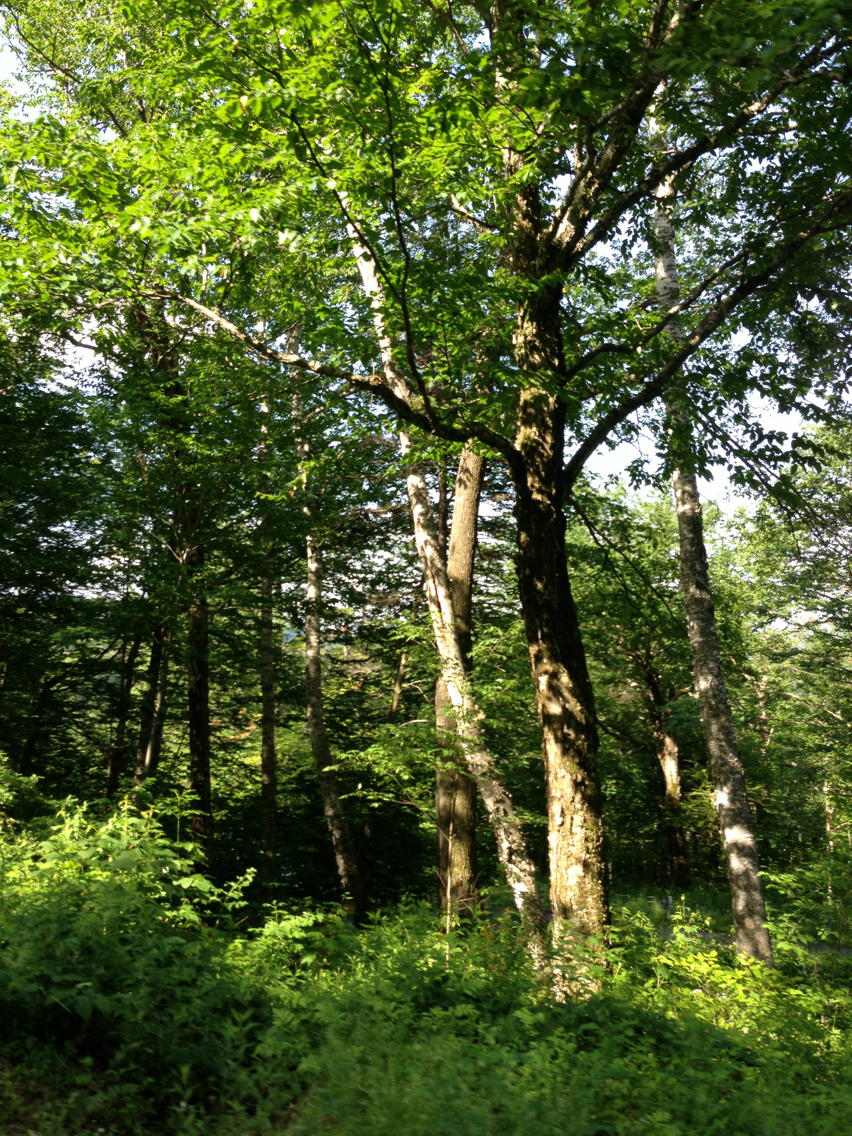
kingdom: Plantae
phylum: Tracheophyta
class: Magnoliopsida
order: Fagales
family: Betulaceae
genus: Betula
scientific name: Betula alleghaniensis
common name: Yellow birch
